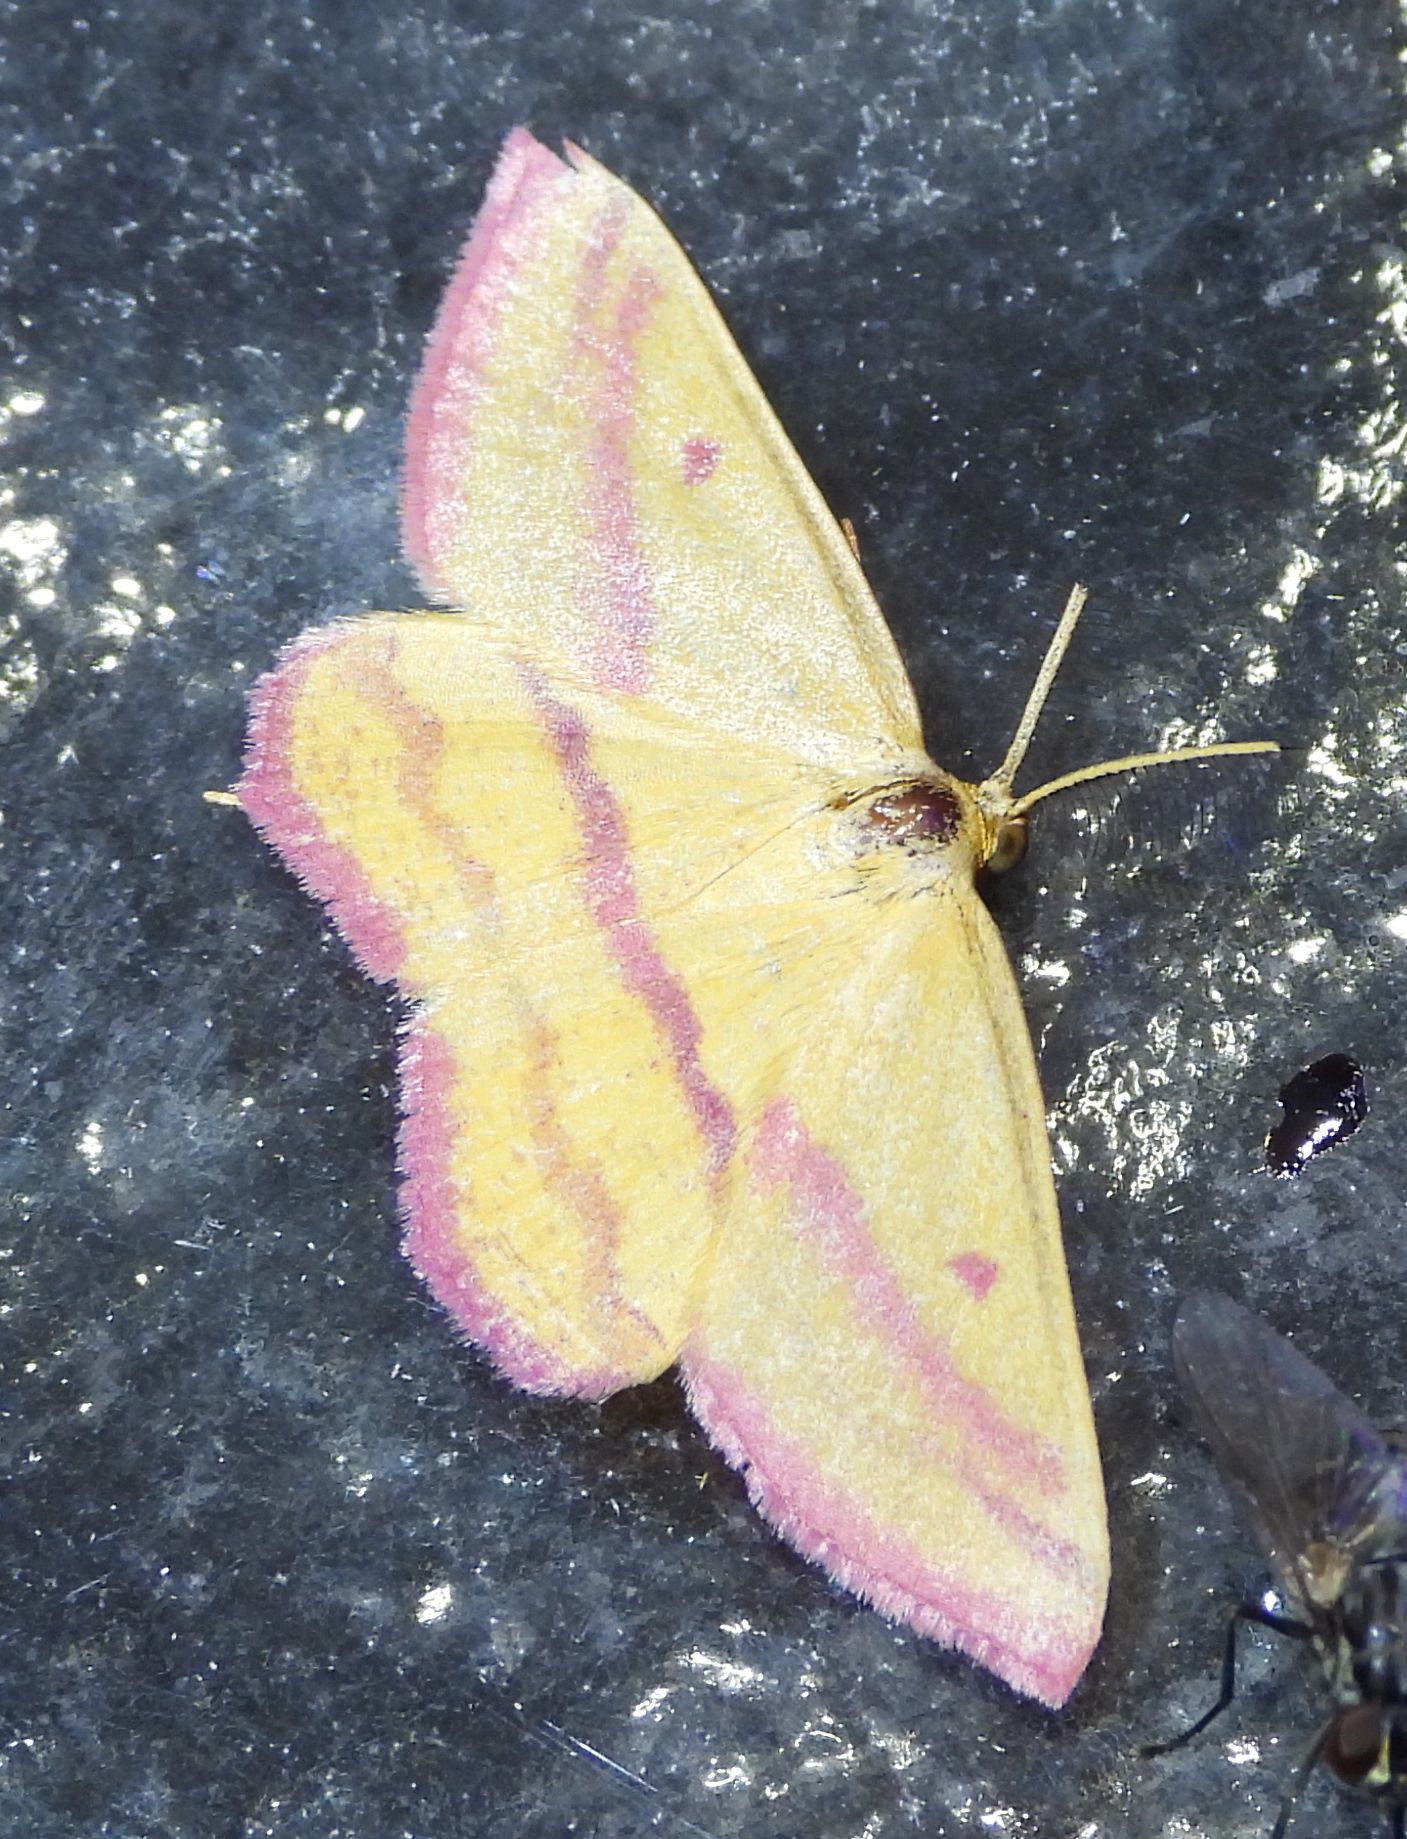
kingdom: Animalia
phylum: Arthropoda
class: Insecta
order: Lepidoptera
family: Geometridae
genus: Haematopis
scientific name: Haematopis grataria
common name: Chickweed geometer
